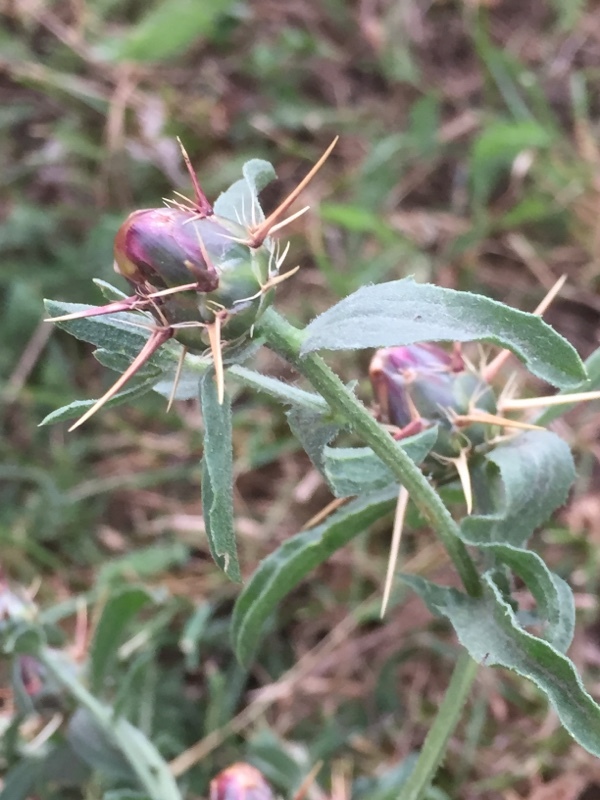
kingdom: Plantae
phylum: Tracheophyta
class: Magnoliopsida
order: Asterales
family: Asteraceae
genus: Centaurea
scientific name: Centaurea iberica
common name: Iberian knapweed
